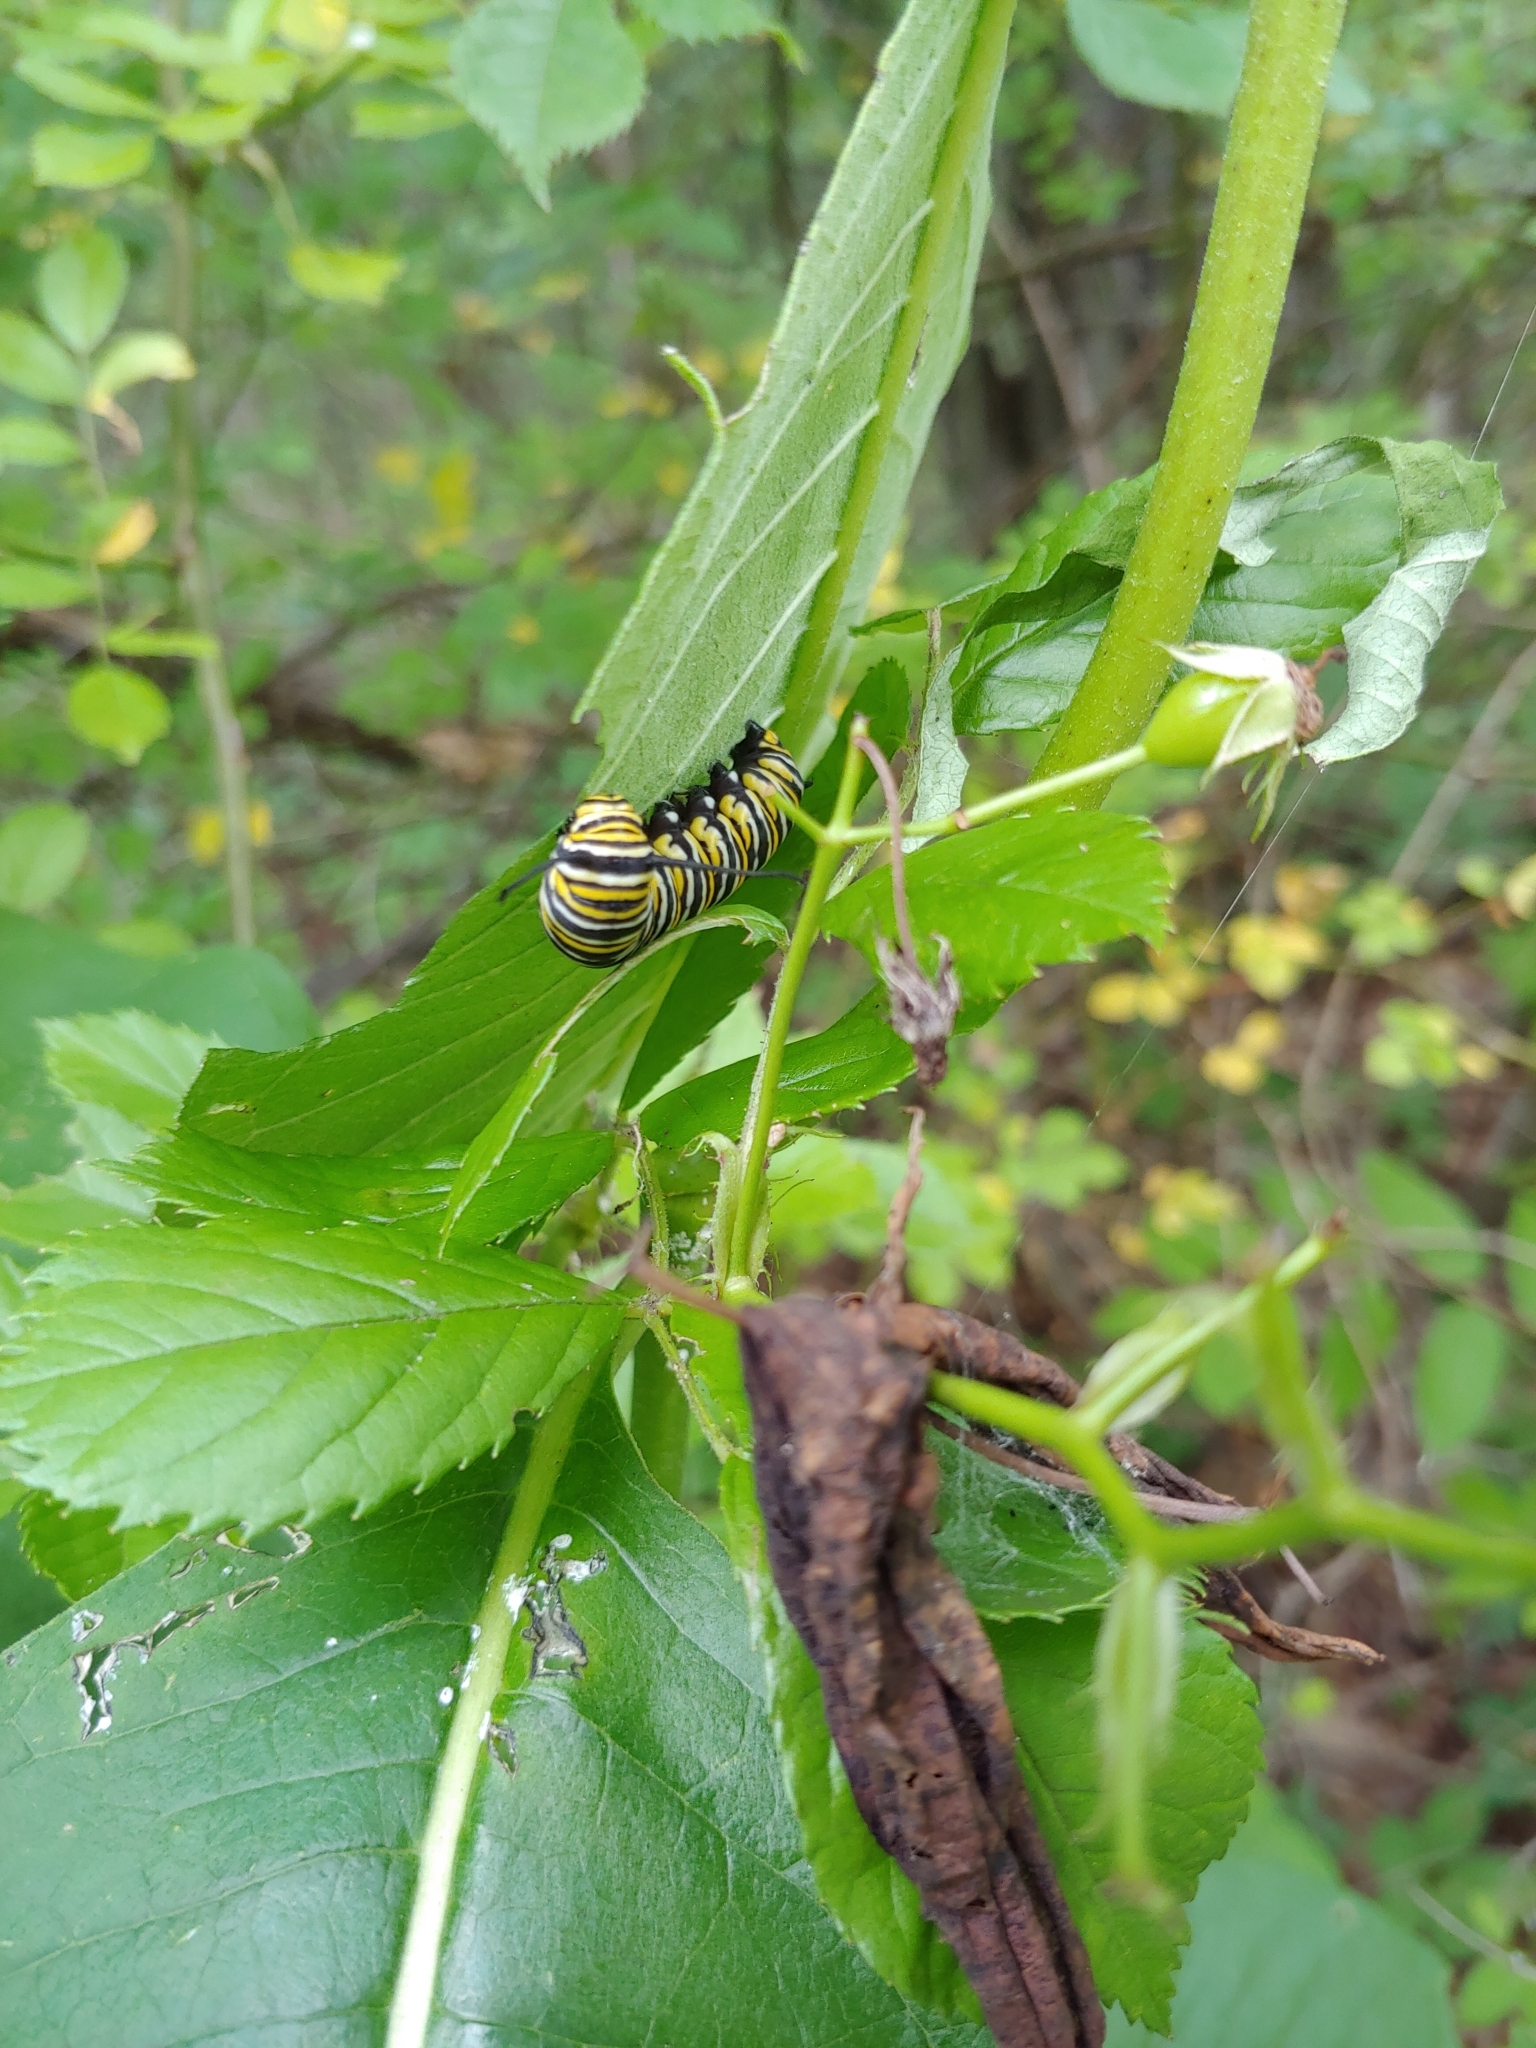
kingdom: Animalia
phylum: Arthropoda
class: Insecta
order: Lepidoptera
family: Nymphalidae
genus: Danaus
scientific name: Danaus plexippus
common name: Monarch
